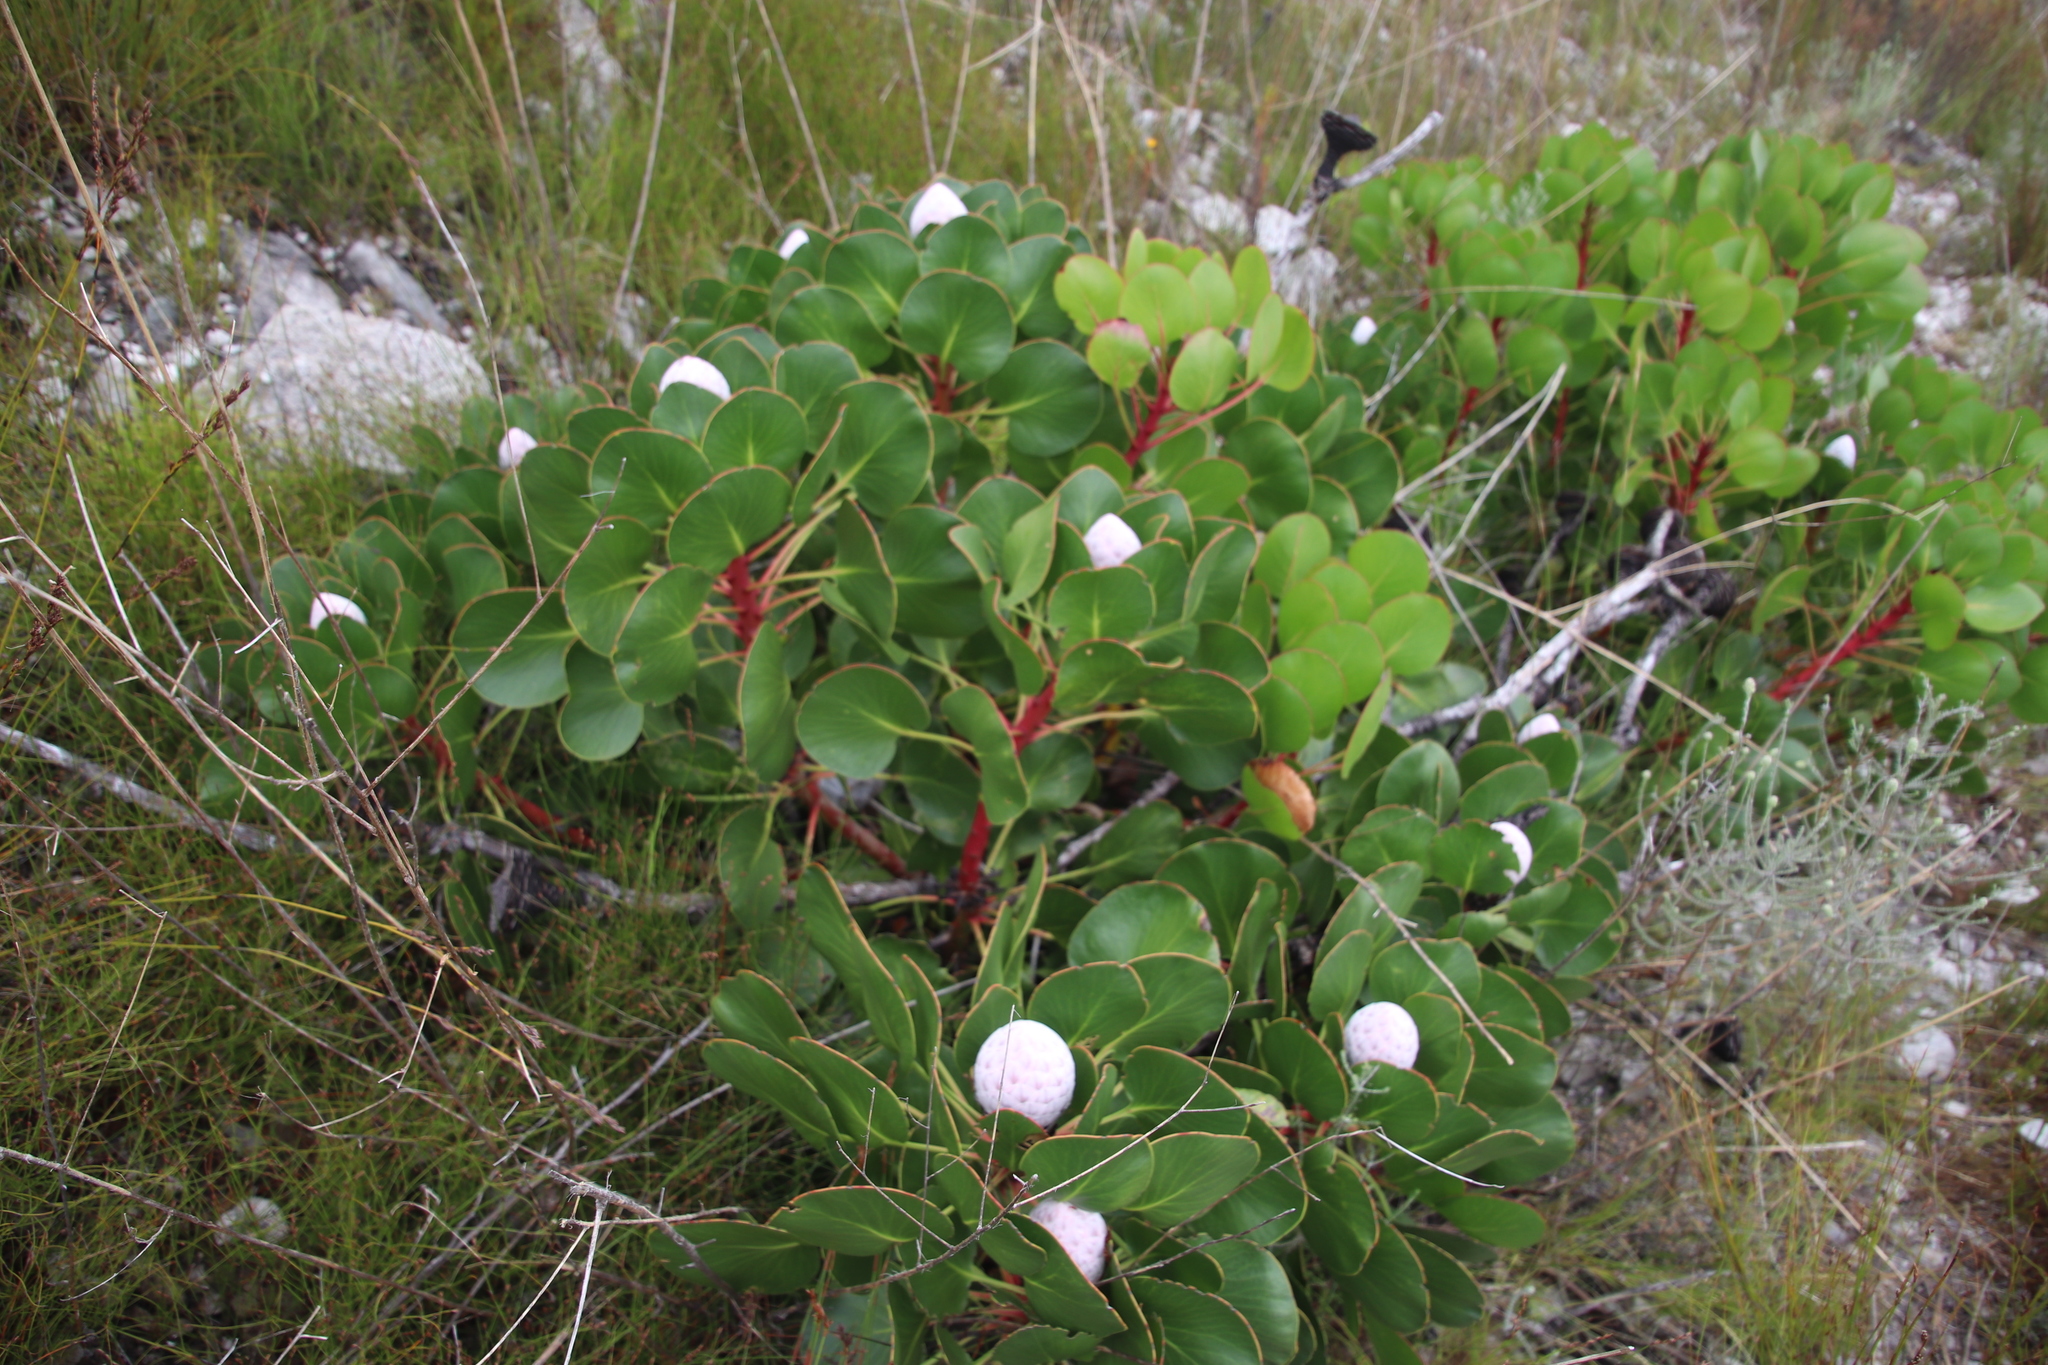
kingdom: Plantae
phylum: Tracheophyta
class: Magnoliopsida
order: Proteales
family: Proteaceae
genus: Protea
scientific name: Protea cynaroides
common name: King protea
